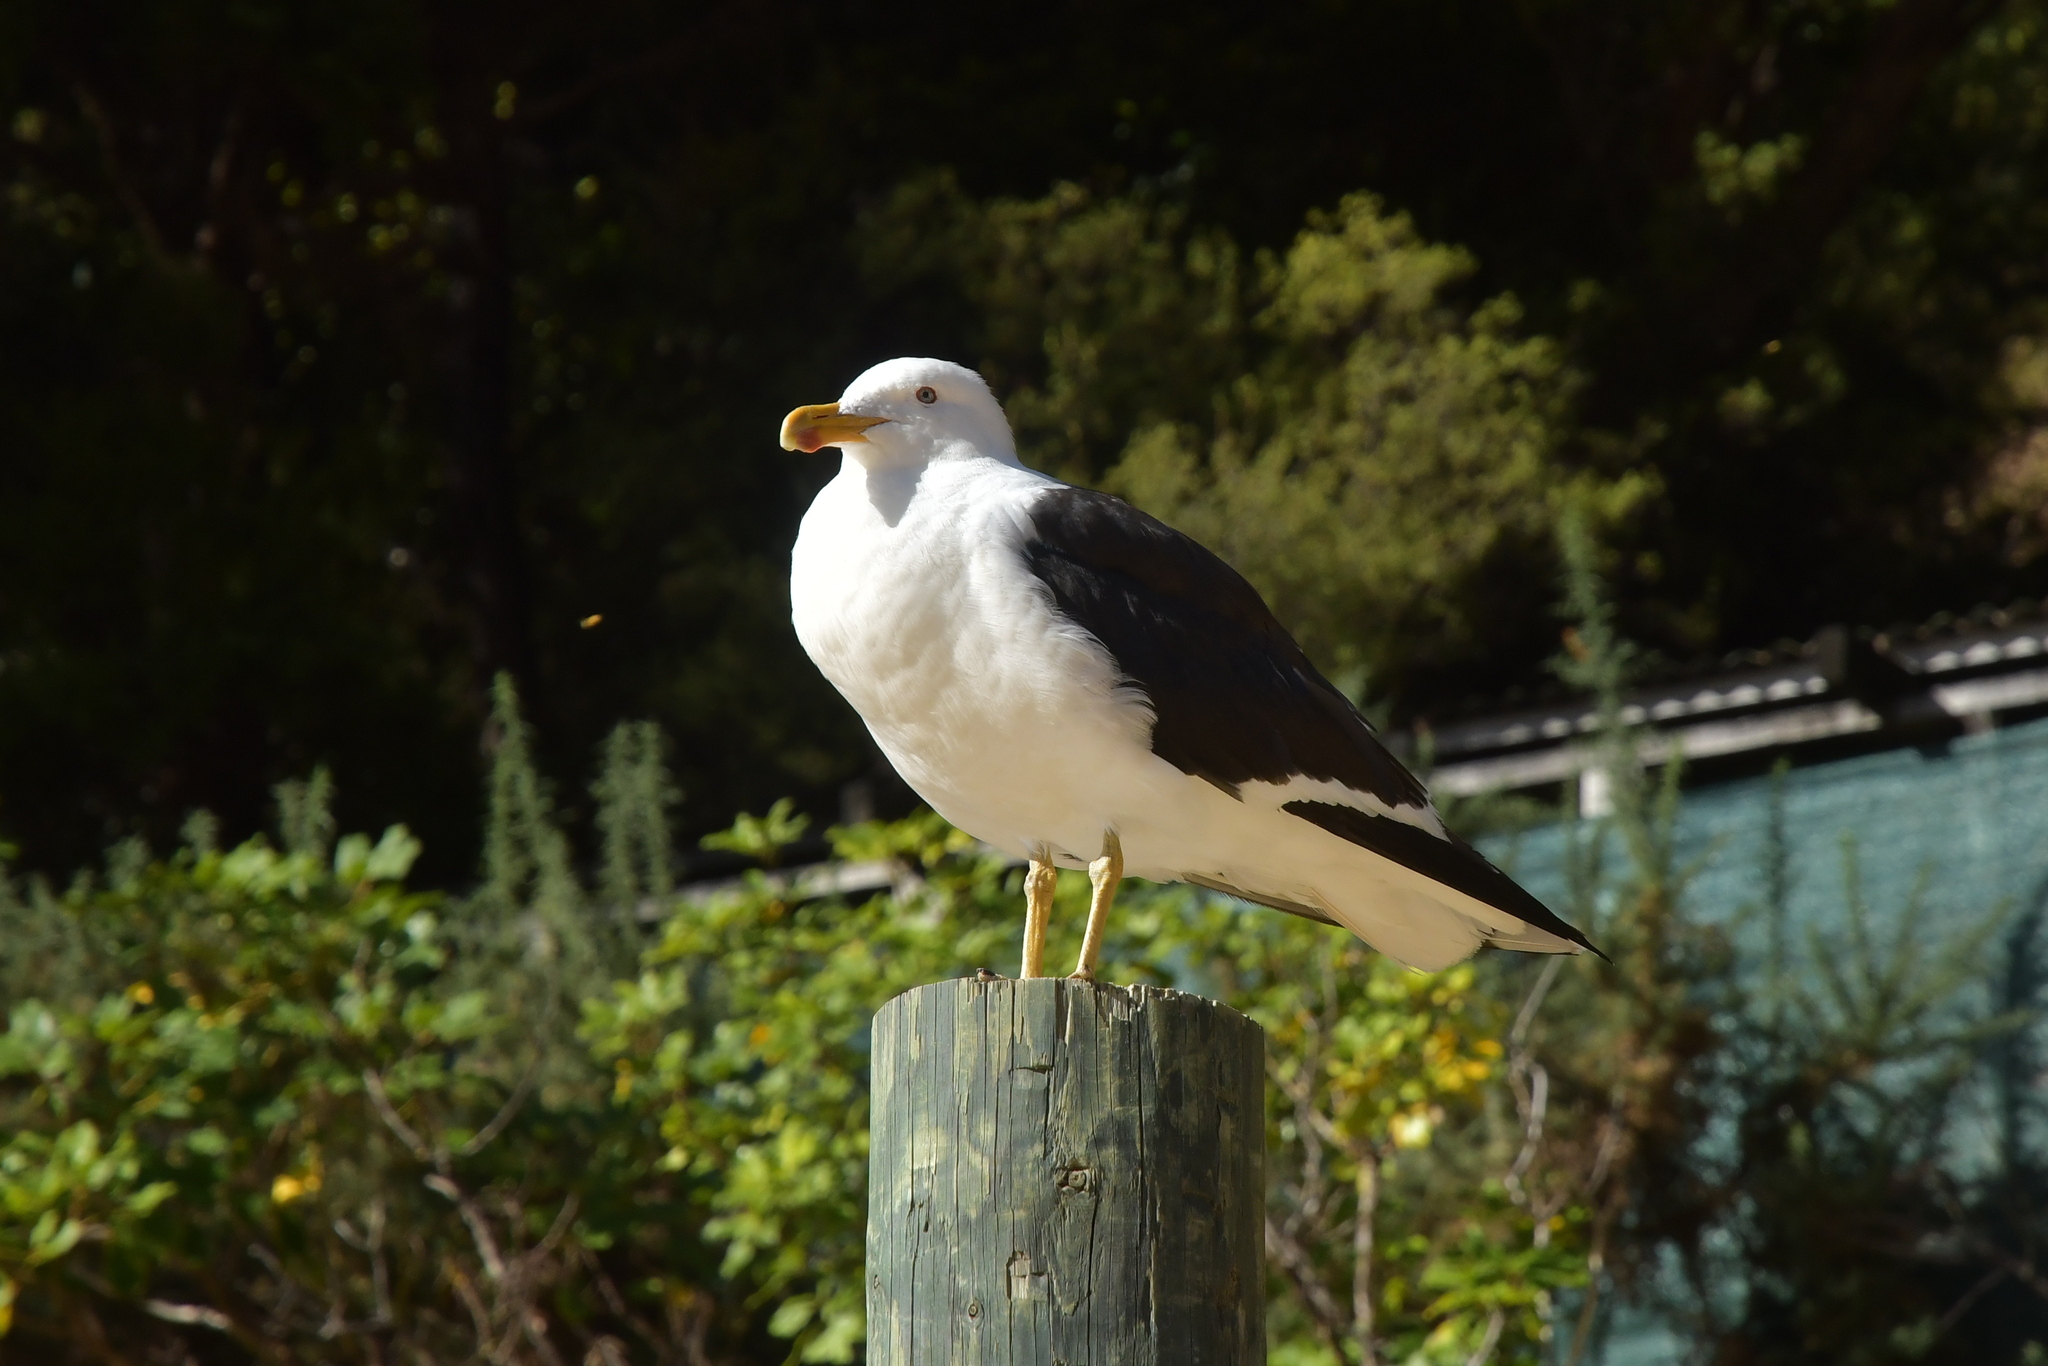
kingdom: Animalia
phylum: Chordata
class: Aves
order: Charadriiformes
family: Laridae
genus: Larus
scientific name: Larus dominicanus
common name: Kelp gull
